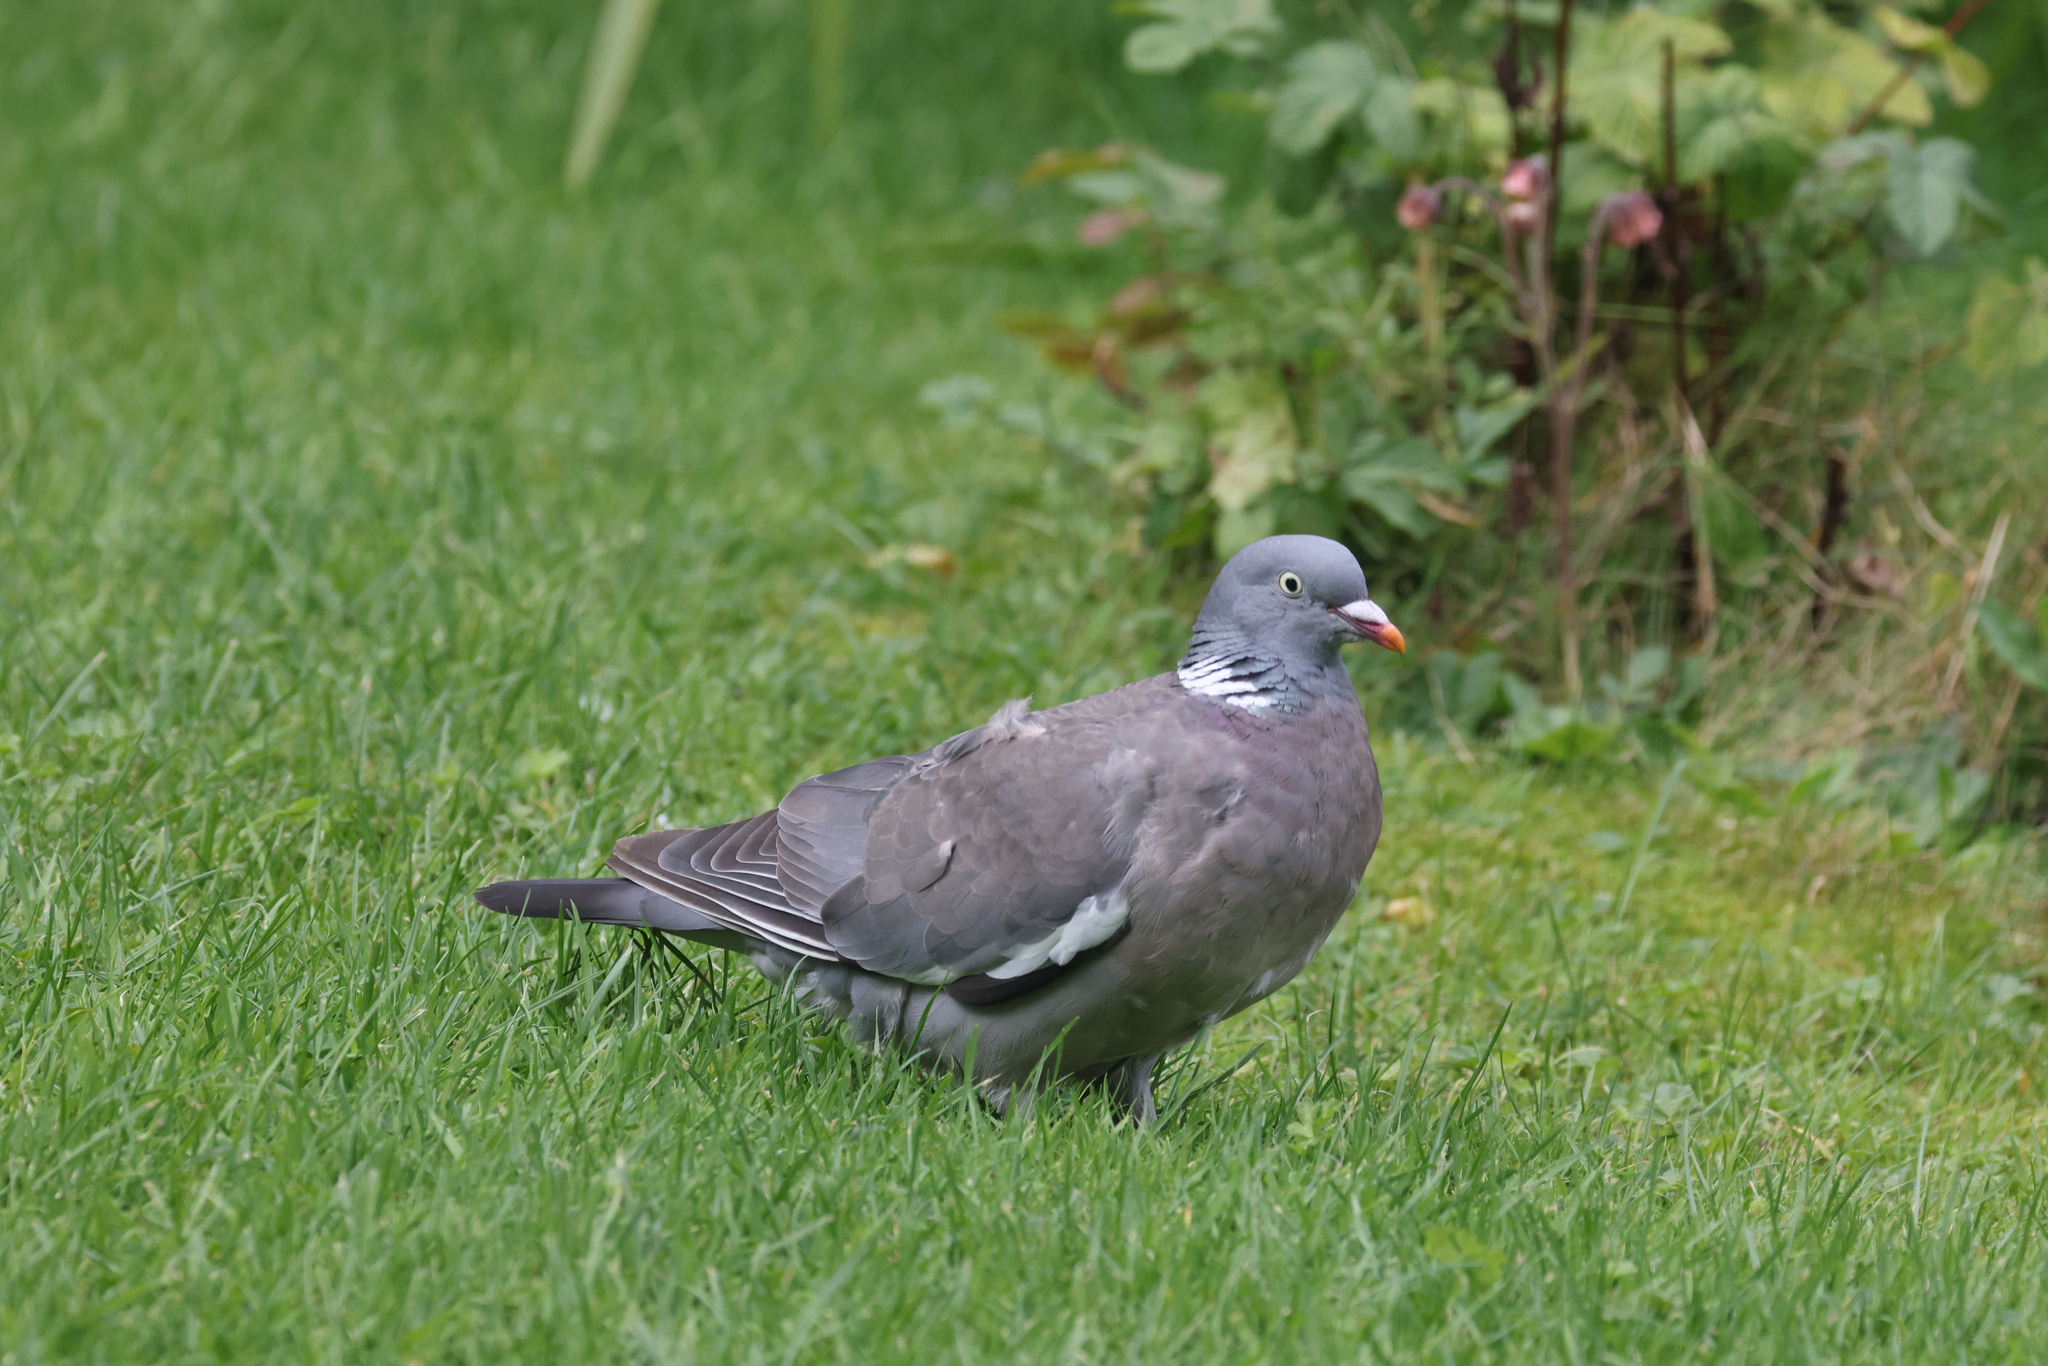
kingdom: Animalia
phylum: Chordata
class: Aves
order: Columbiformes
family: Columbidae
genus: Columba
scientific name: Columba palumbus
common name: Common wood pigeon
